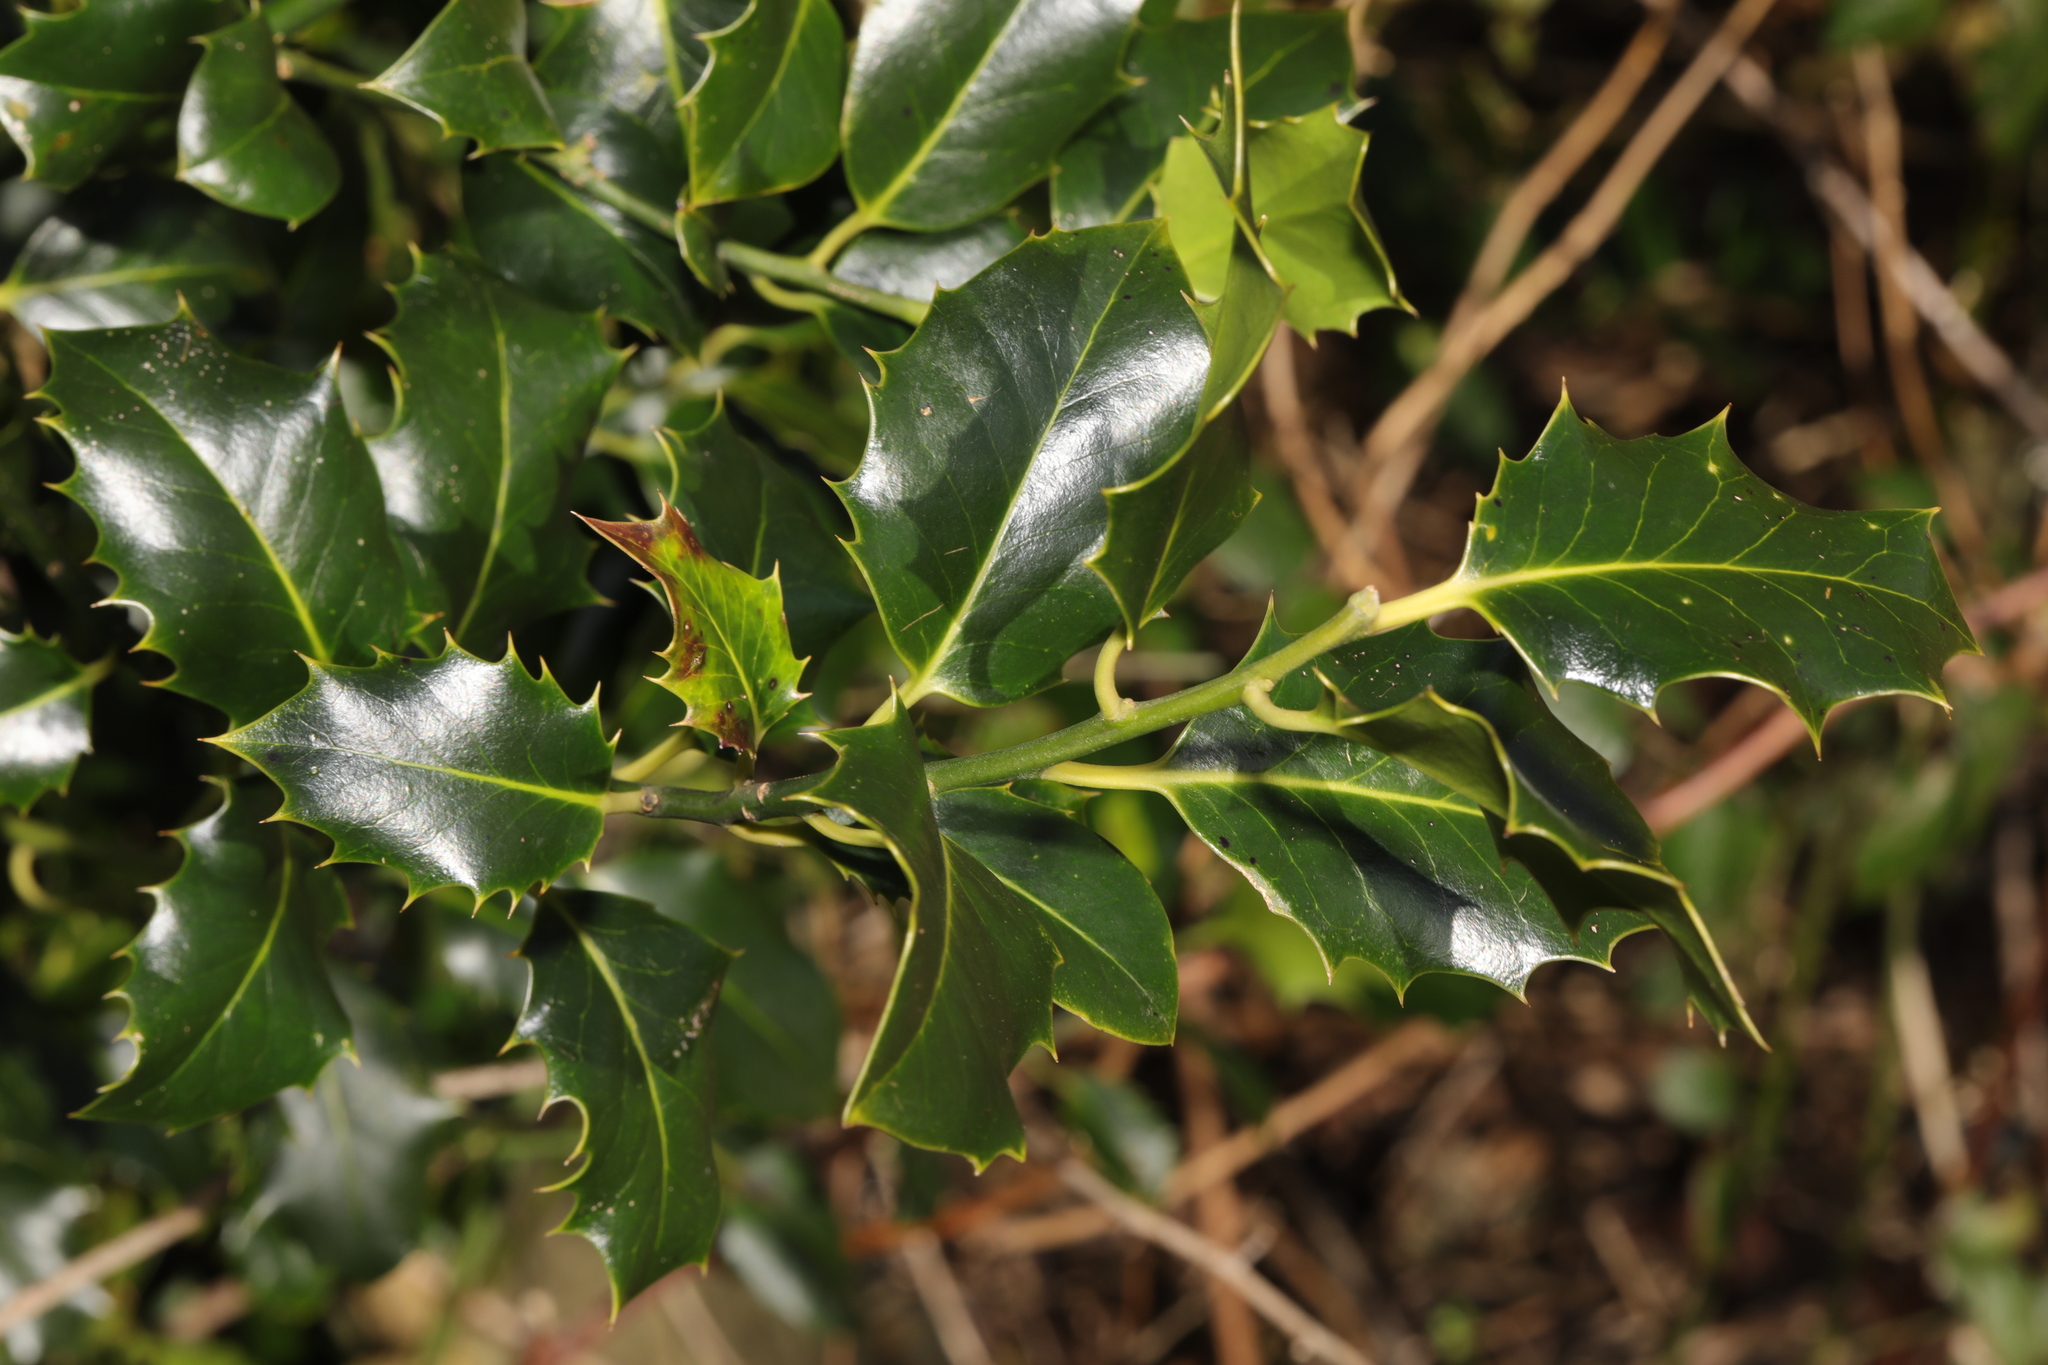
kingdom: Plantae
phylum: Tracheophyta
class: Magnoliopsida
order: Aquifoliales
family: Aquifoliaceae
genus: Ilex
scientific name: Ilex aquifolium
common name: English holly
